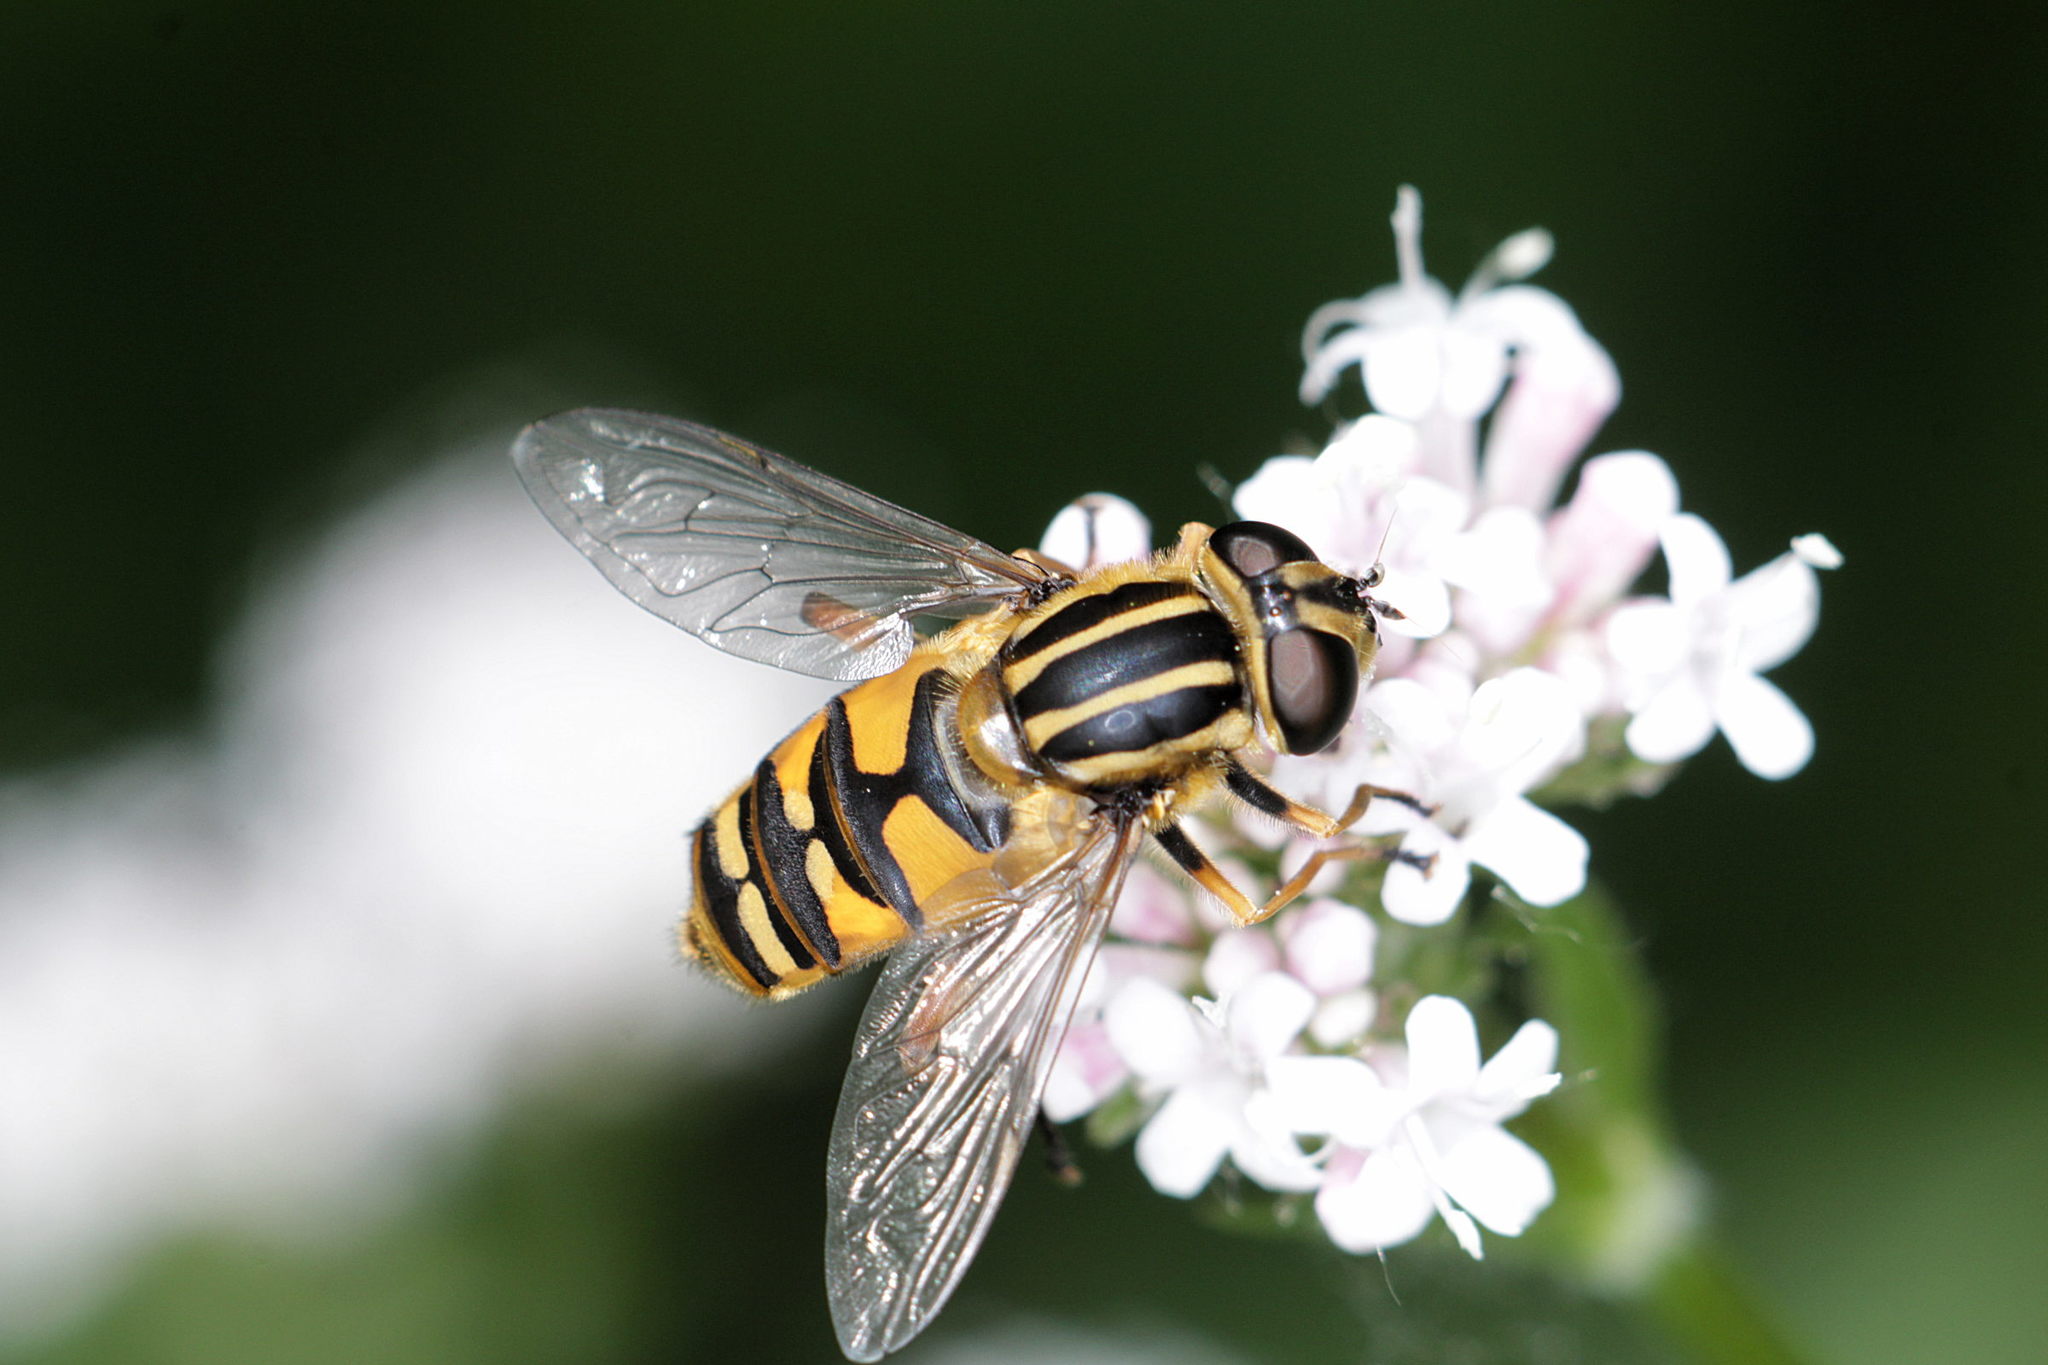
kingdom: Animalia
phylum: Arthropoda
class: Insecta
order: Diptera
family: Syrphidae
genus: Helophilus
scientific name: Helophilus pendulus
